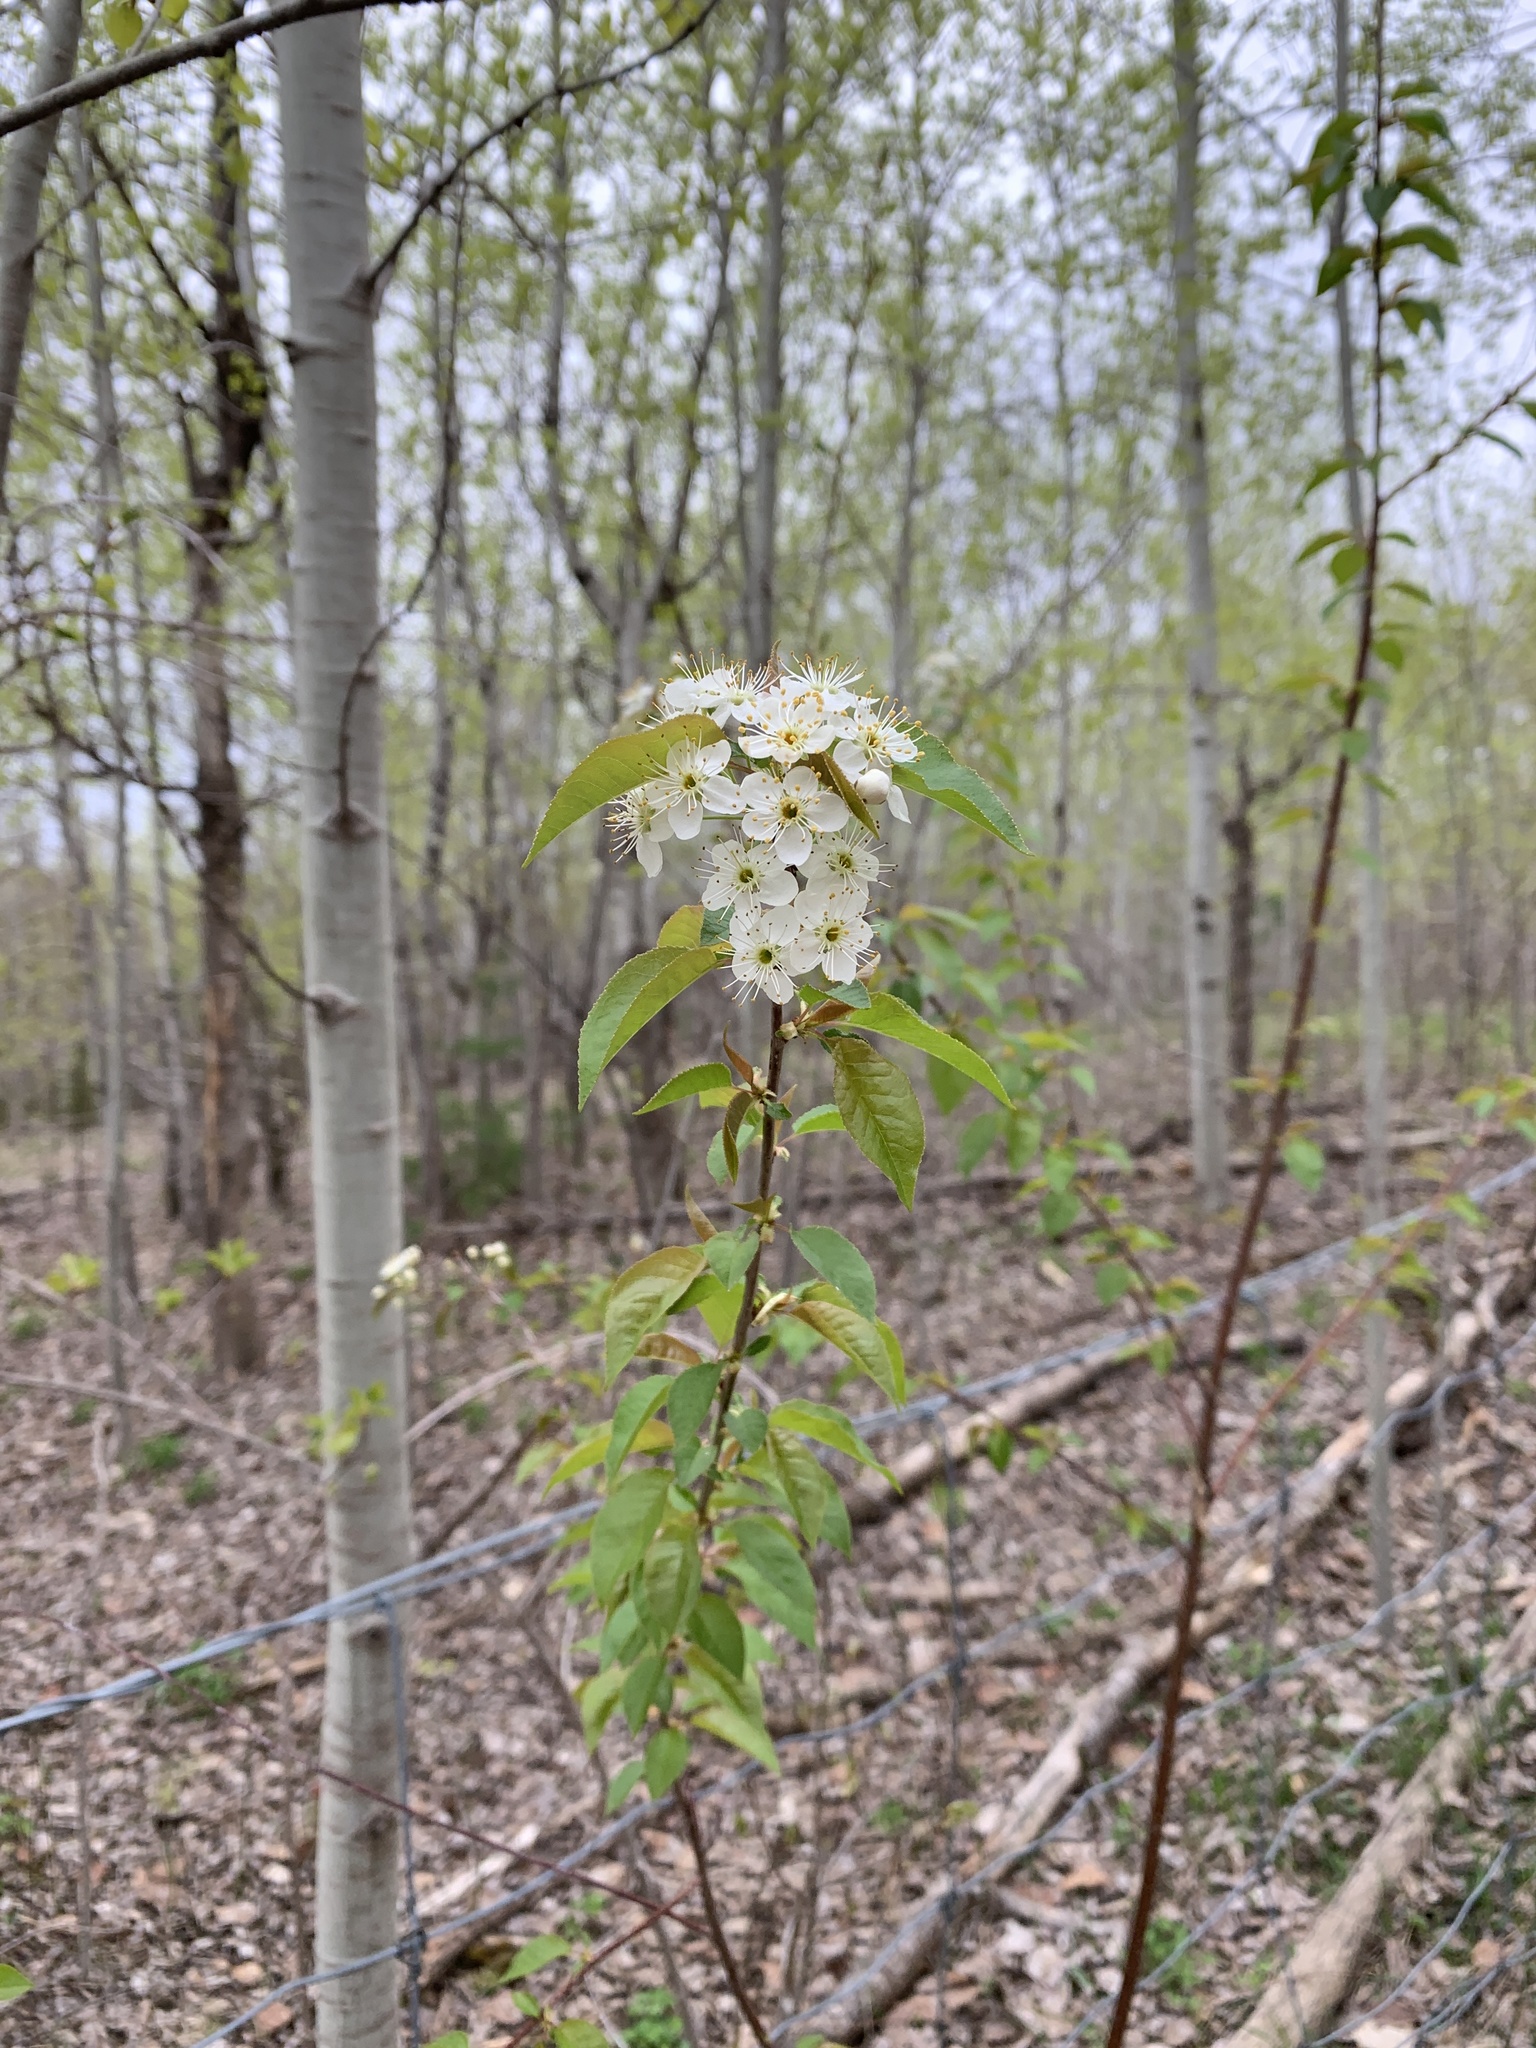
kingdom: Plantae
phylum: Tracheophyta
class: Magnoliopsida
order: Rosales
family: Rosaceae
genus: Prunus
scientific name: Prunus pensylvanica
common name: Pin cherry
